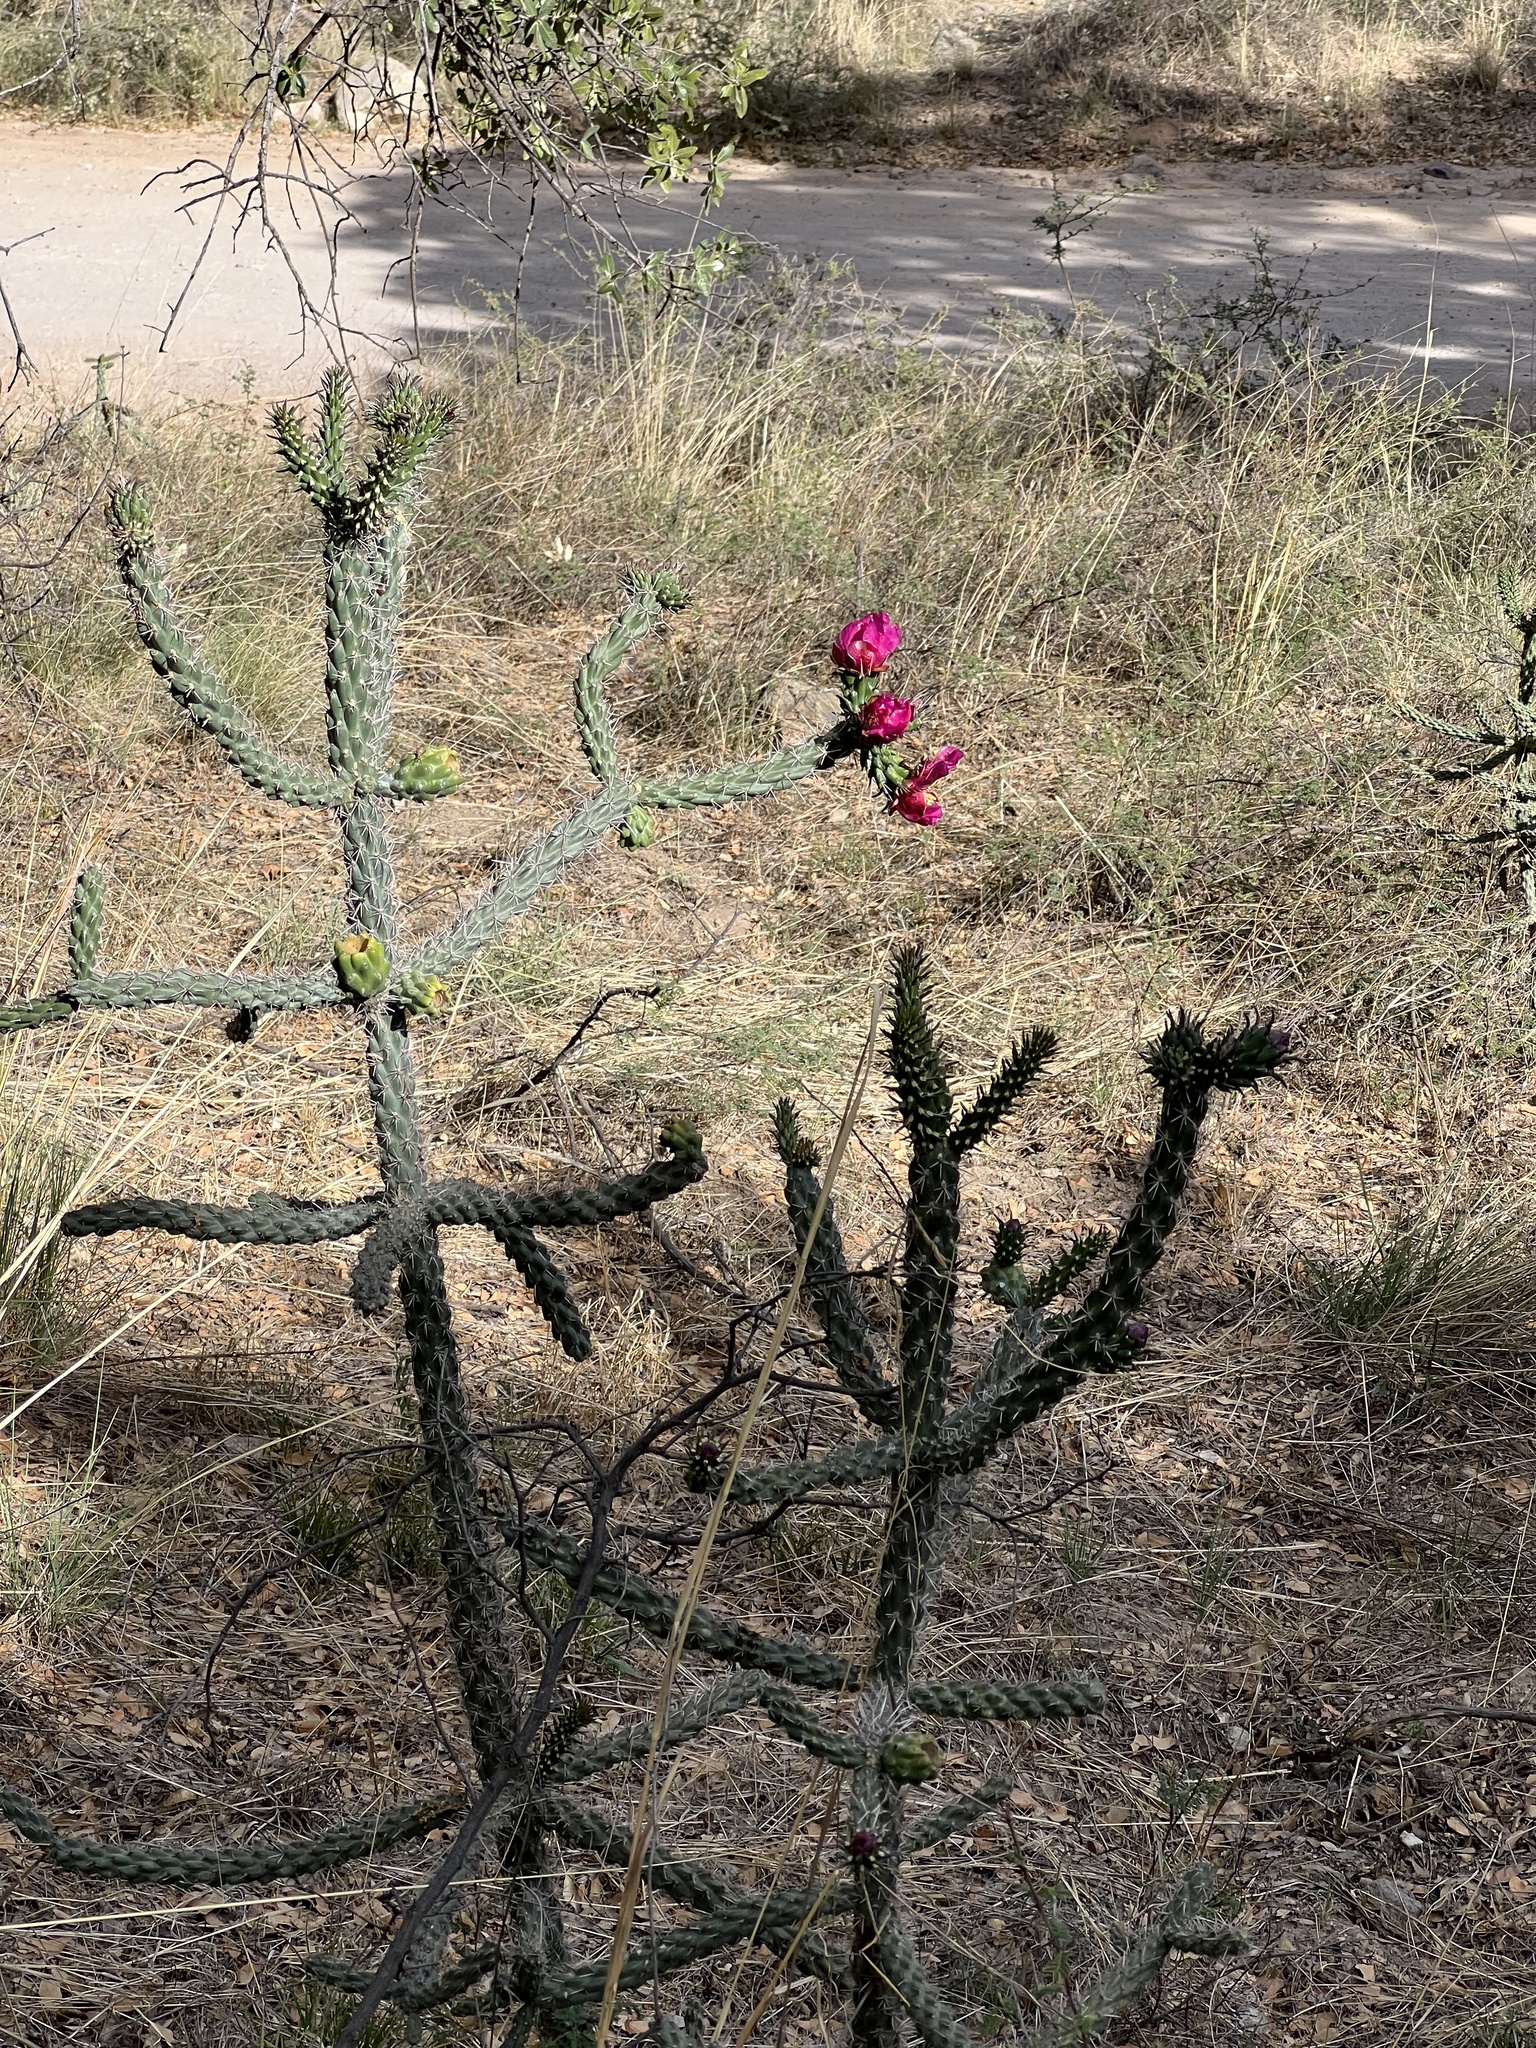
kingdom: Plantae
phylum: Tracheophyta
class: Magnoliopsida
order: Caryophyllales
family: Cactaceae
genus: Cylindropuntia
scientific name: Cylindropuntia imbricata
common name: Candelabrum cactus
